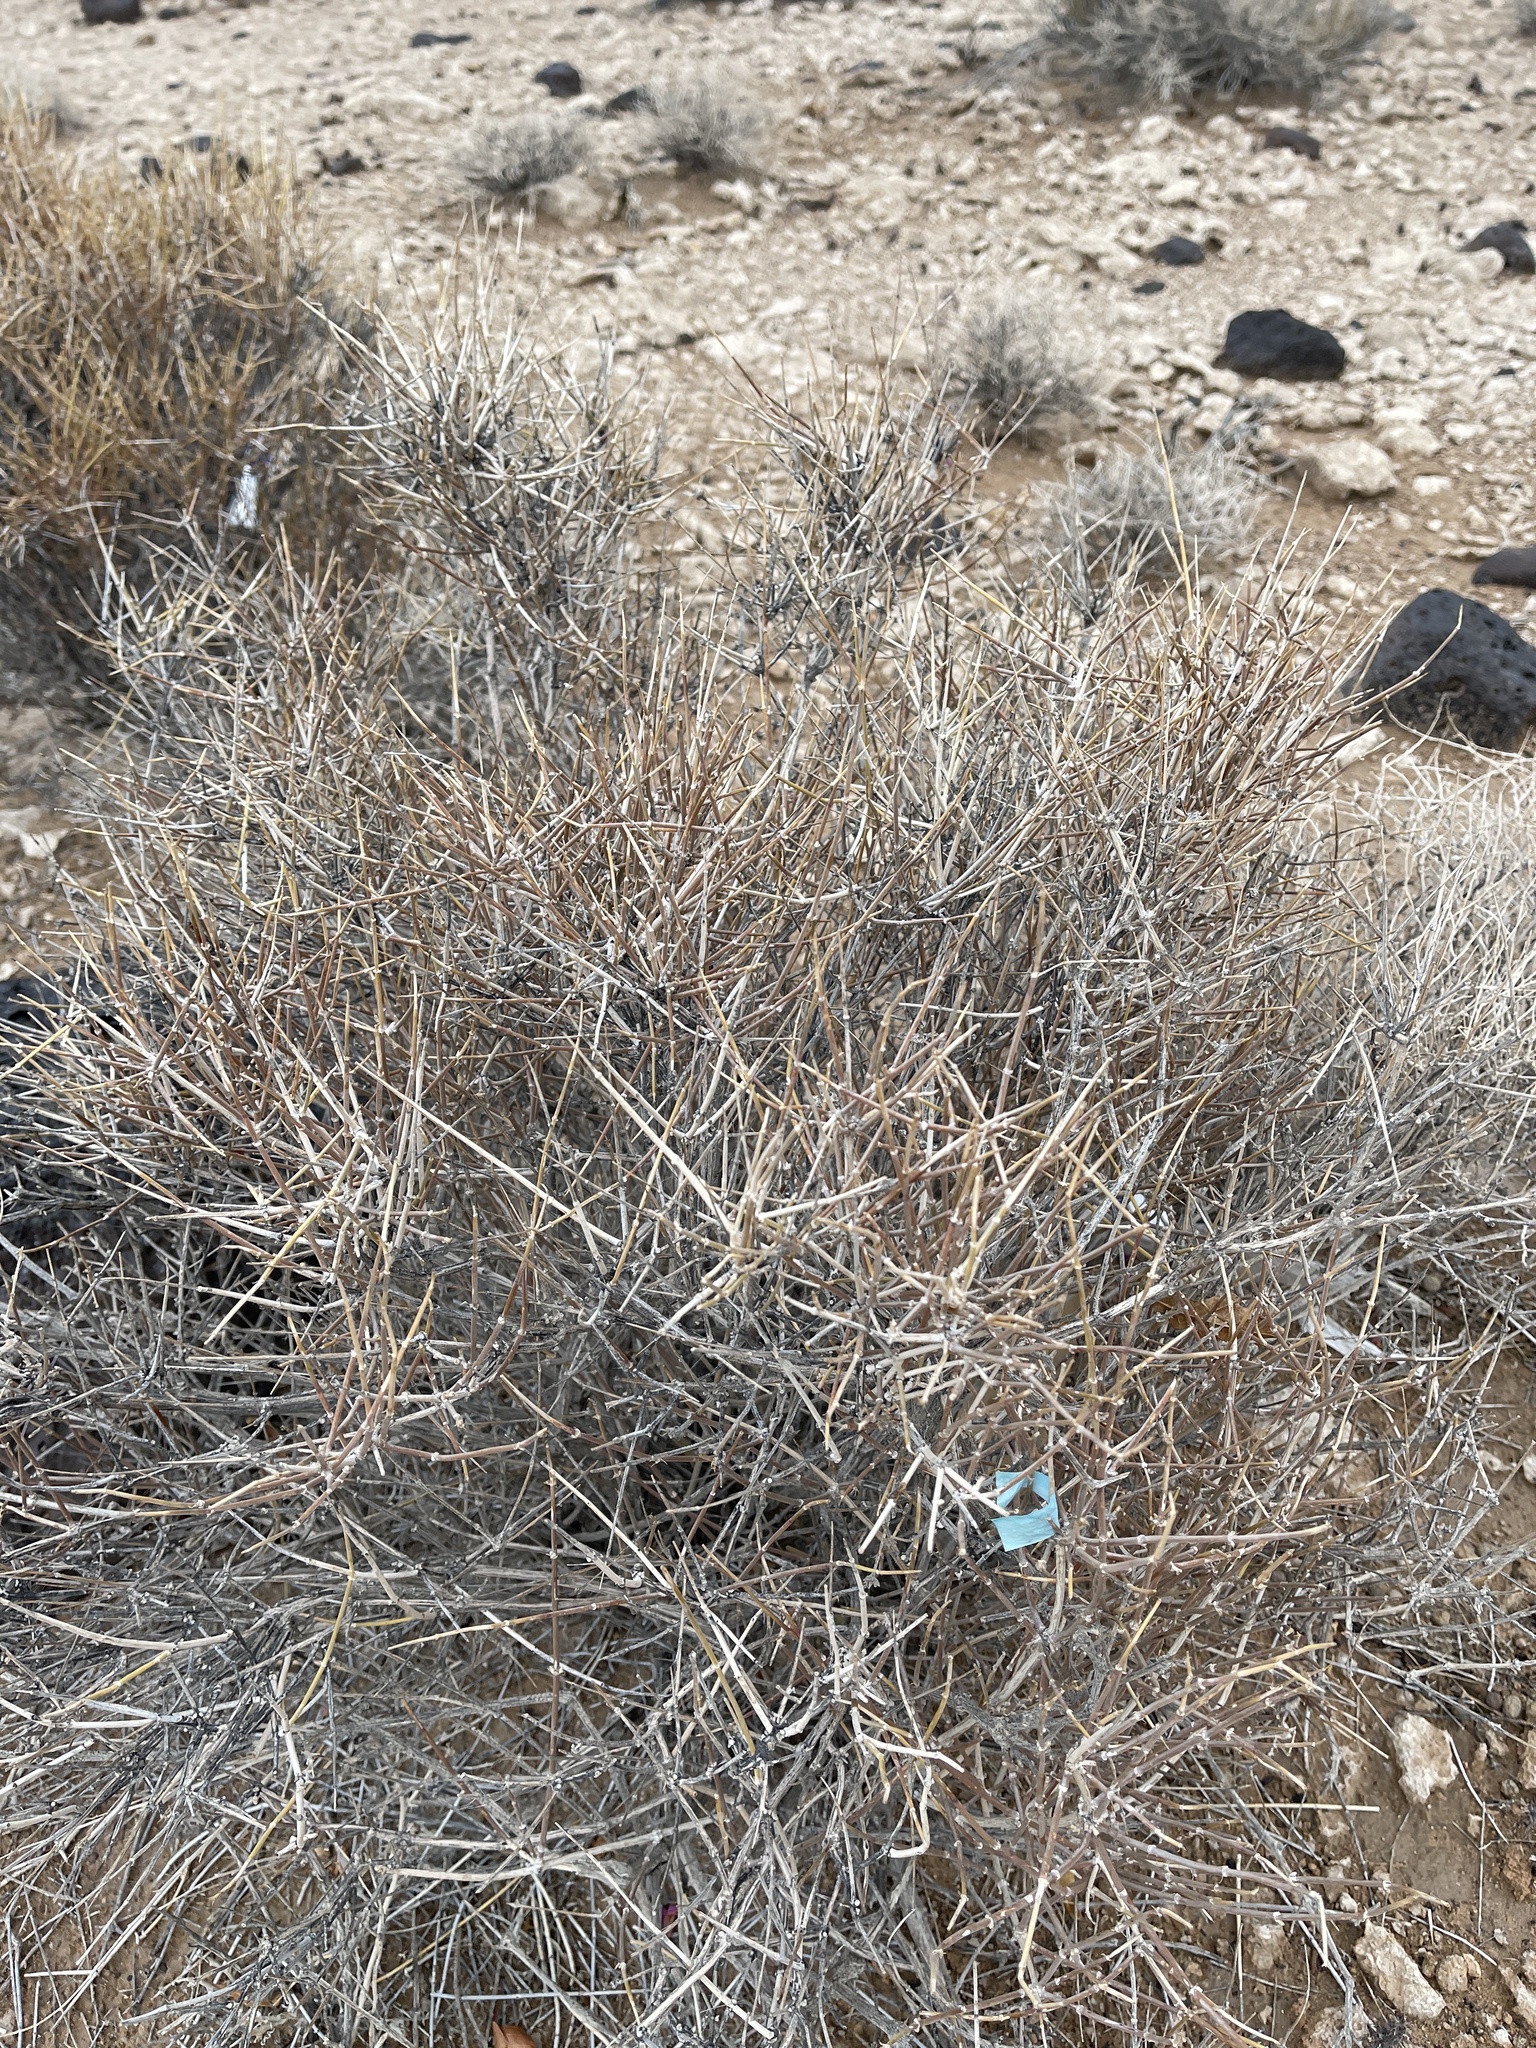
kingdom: Plantae
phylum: Tracheophyta
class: Gnetopsida
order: Ephedrales
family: Ephedraceae
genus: Ephedra
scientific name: Ephedra nevadensis
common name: Gray ephedra
